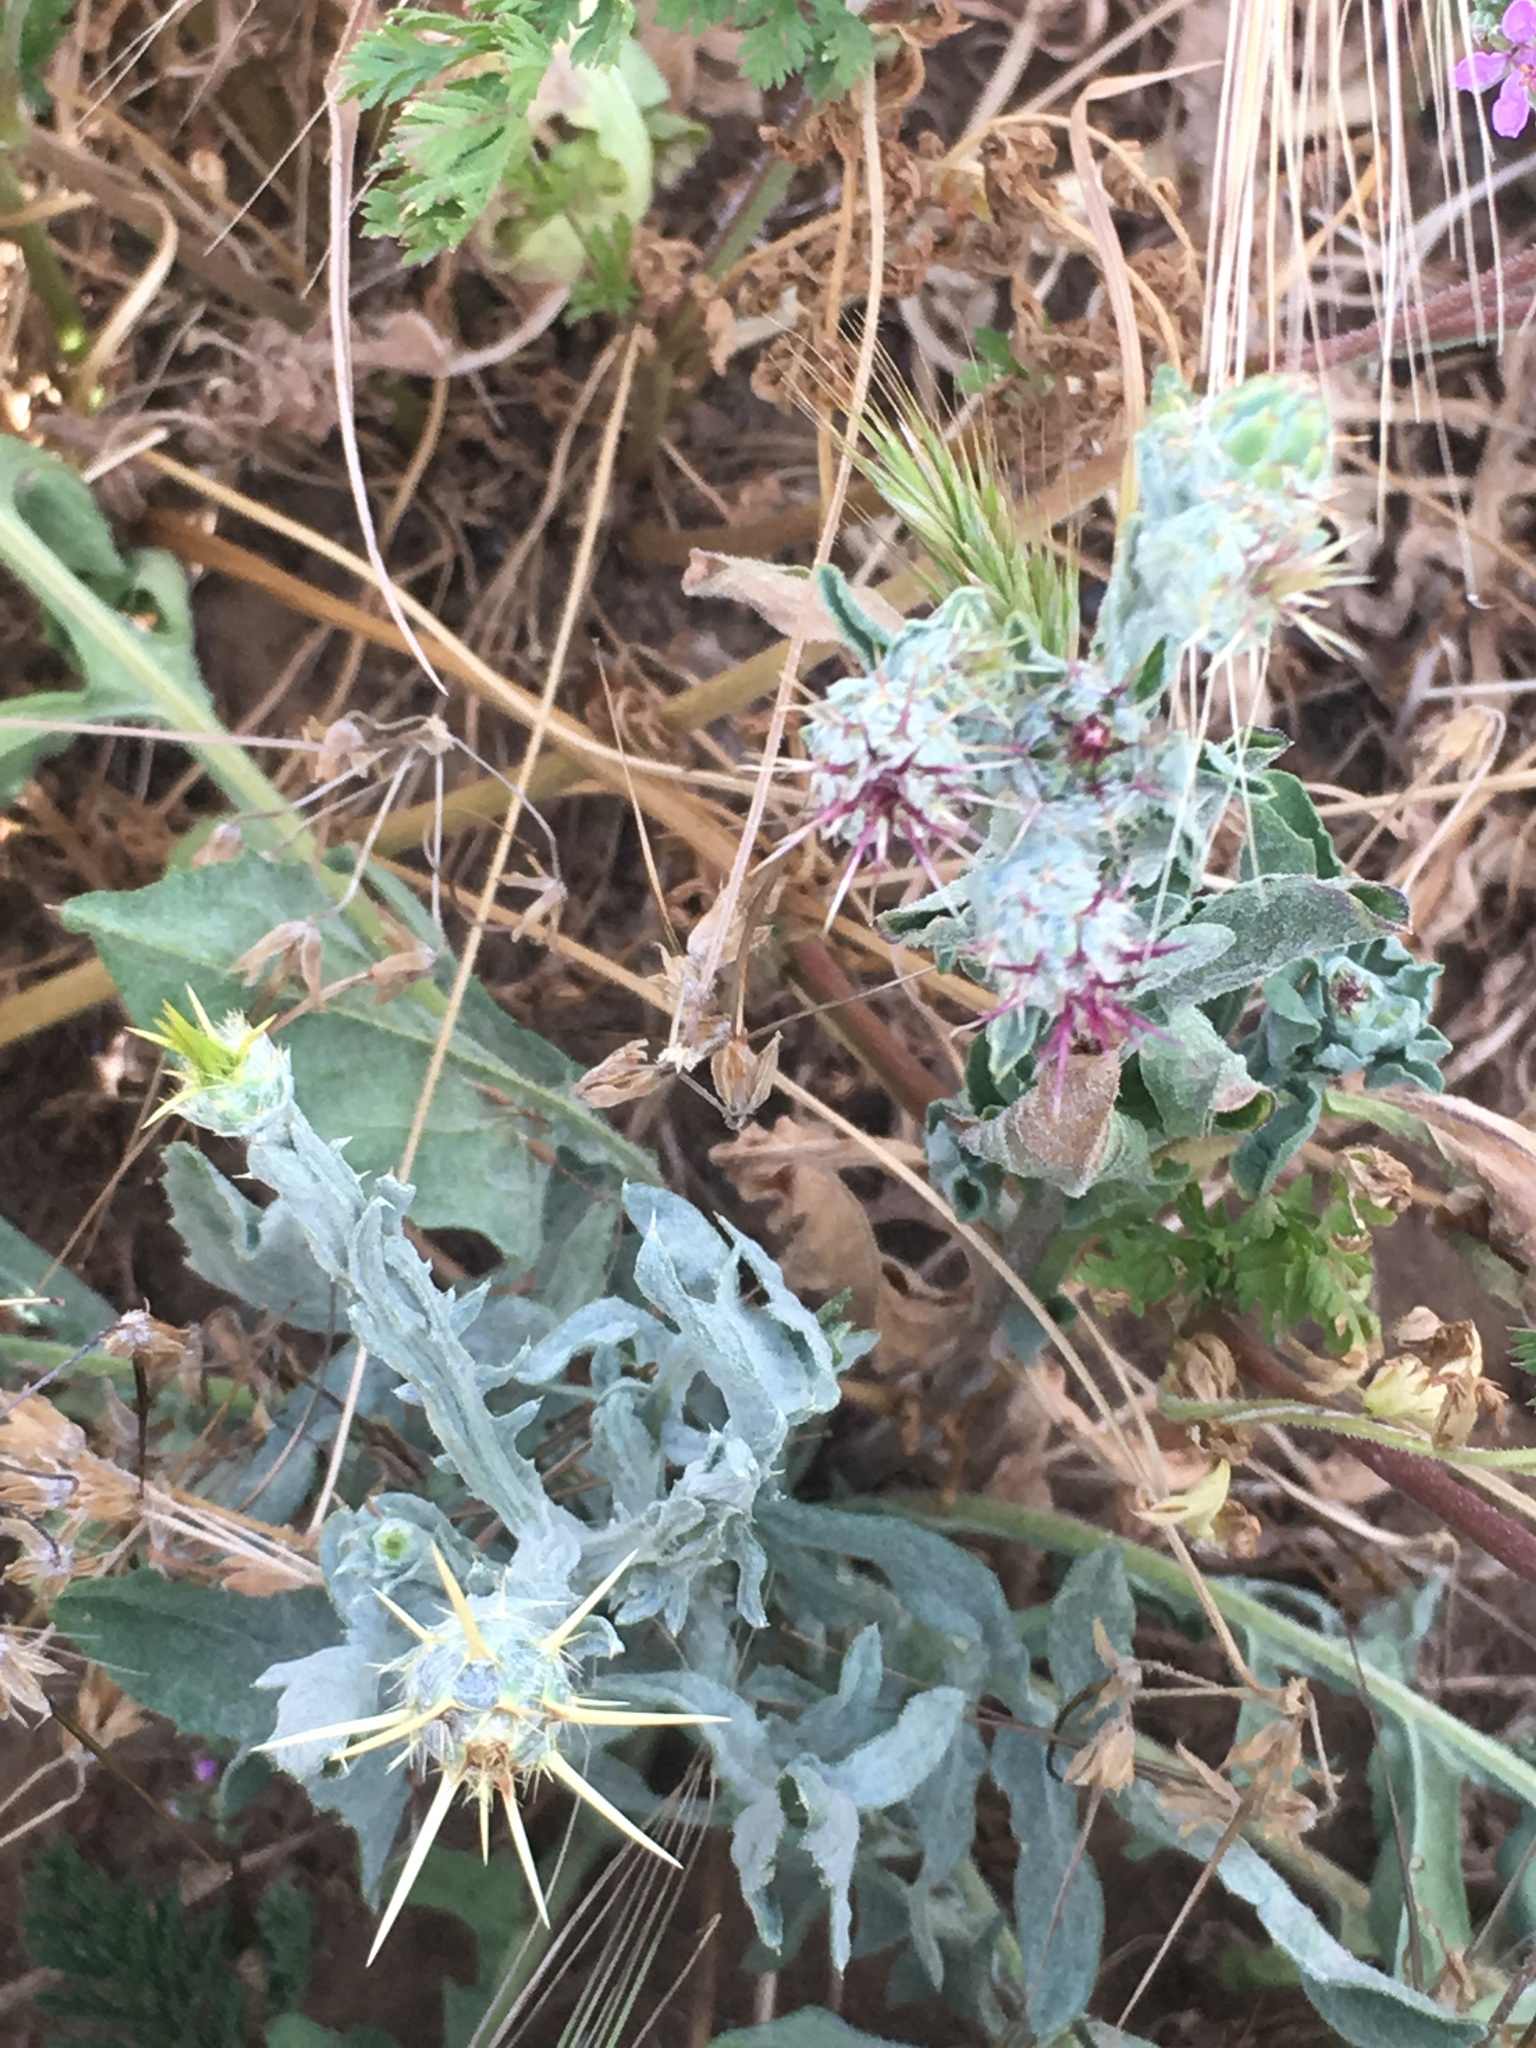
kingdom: Plantae
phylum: Tracheophyta
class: Magnoliopsida
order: Asterales
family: Asteraceae
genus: Centaurea
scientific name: Centaurea melitensis
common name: Maltese star-thistle
